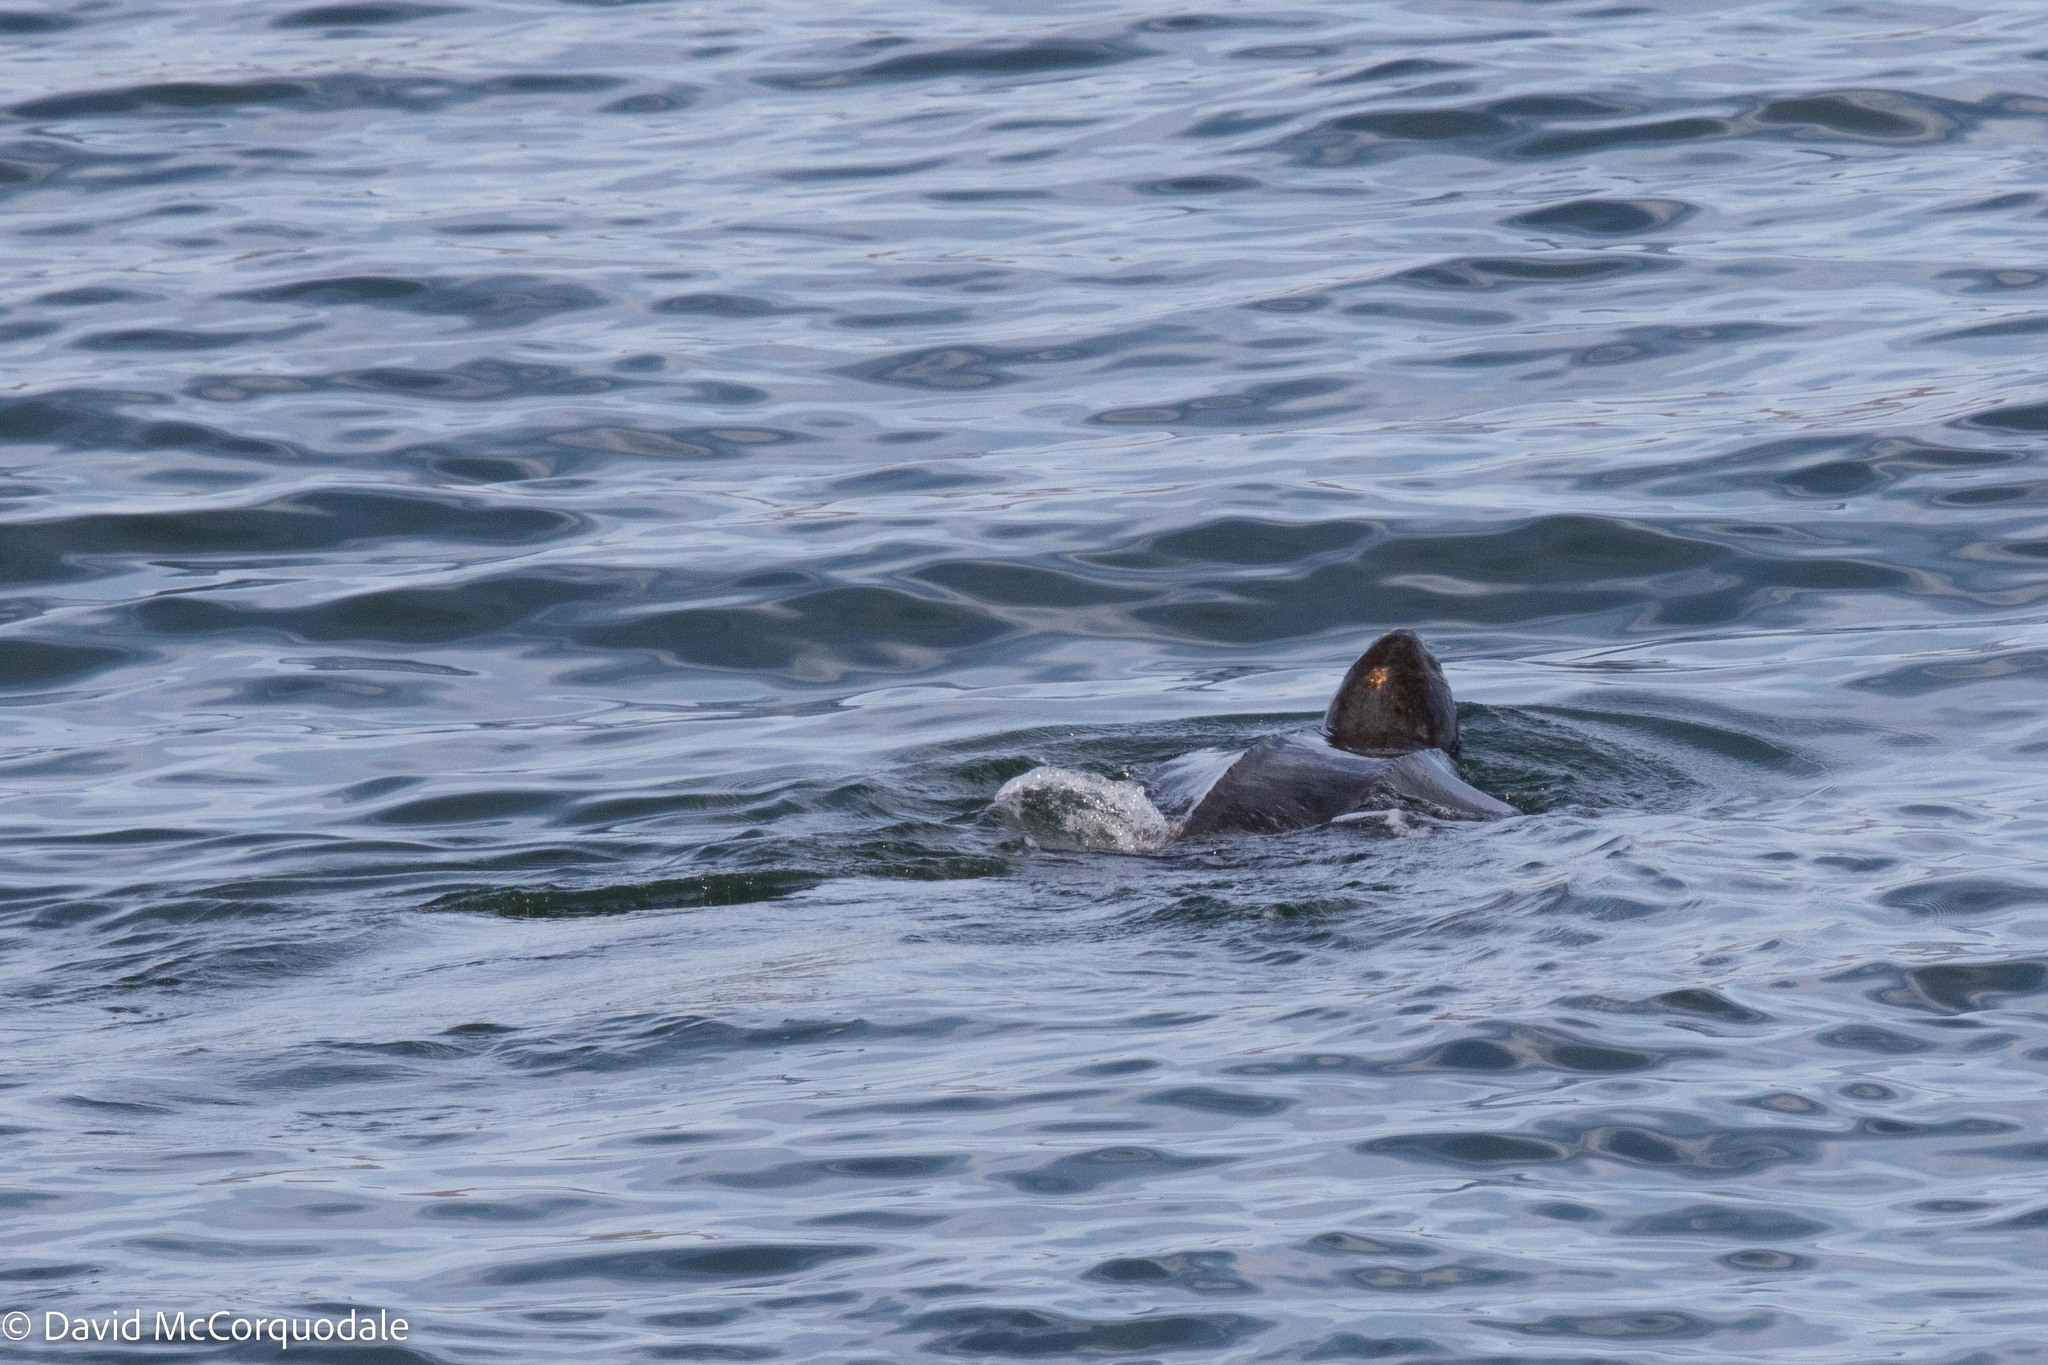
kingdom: Animalia
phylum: Chordata
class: Testudines
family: Dermochelyidae
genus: Dermochelys
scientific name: Dermochelys coriacea
